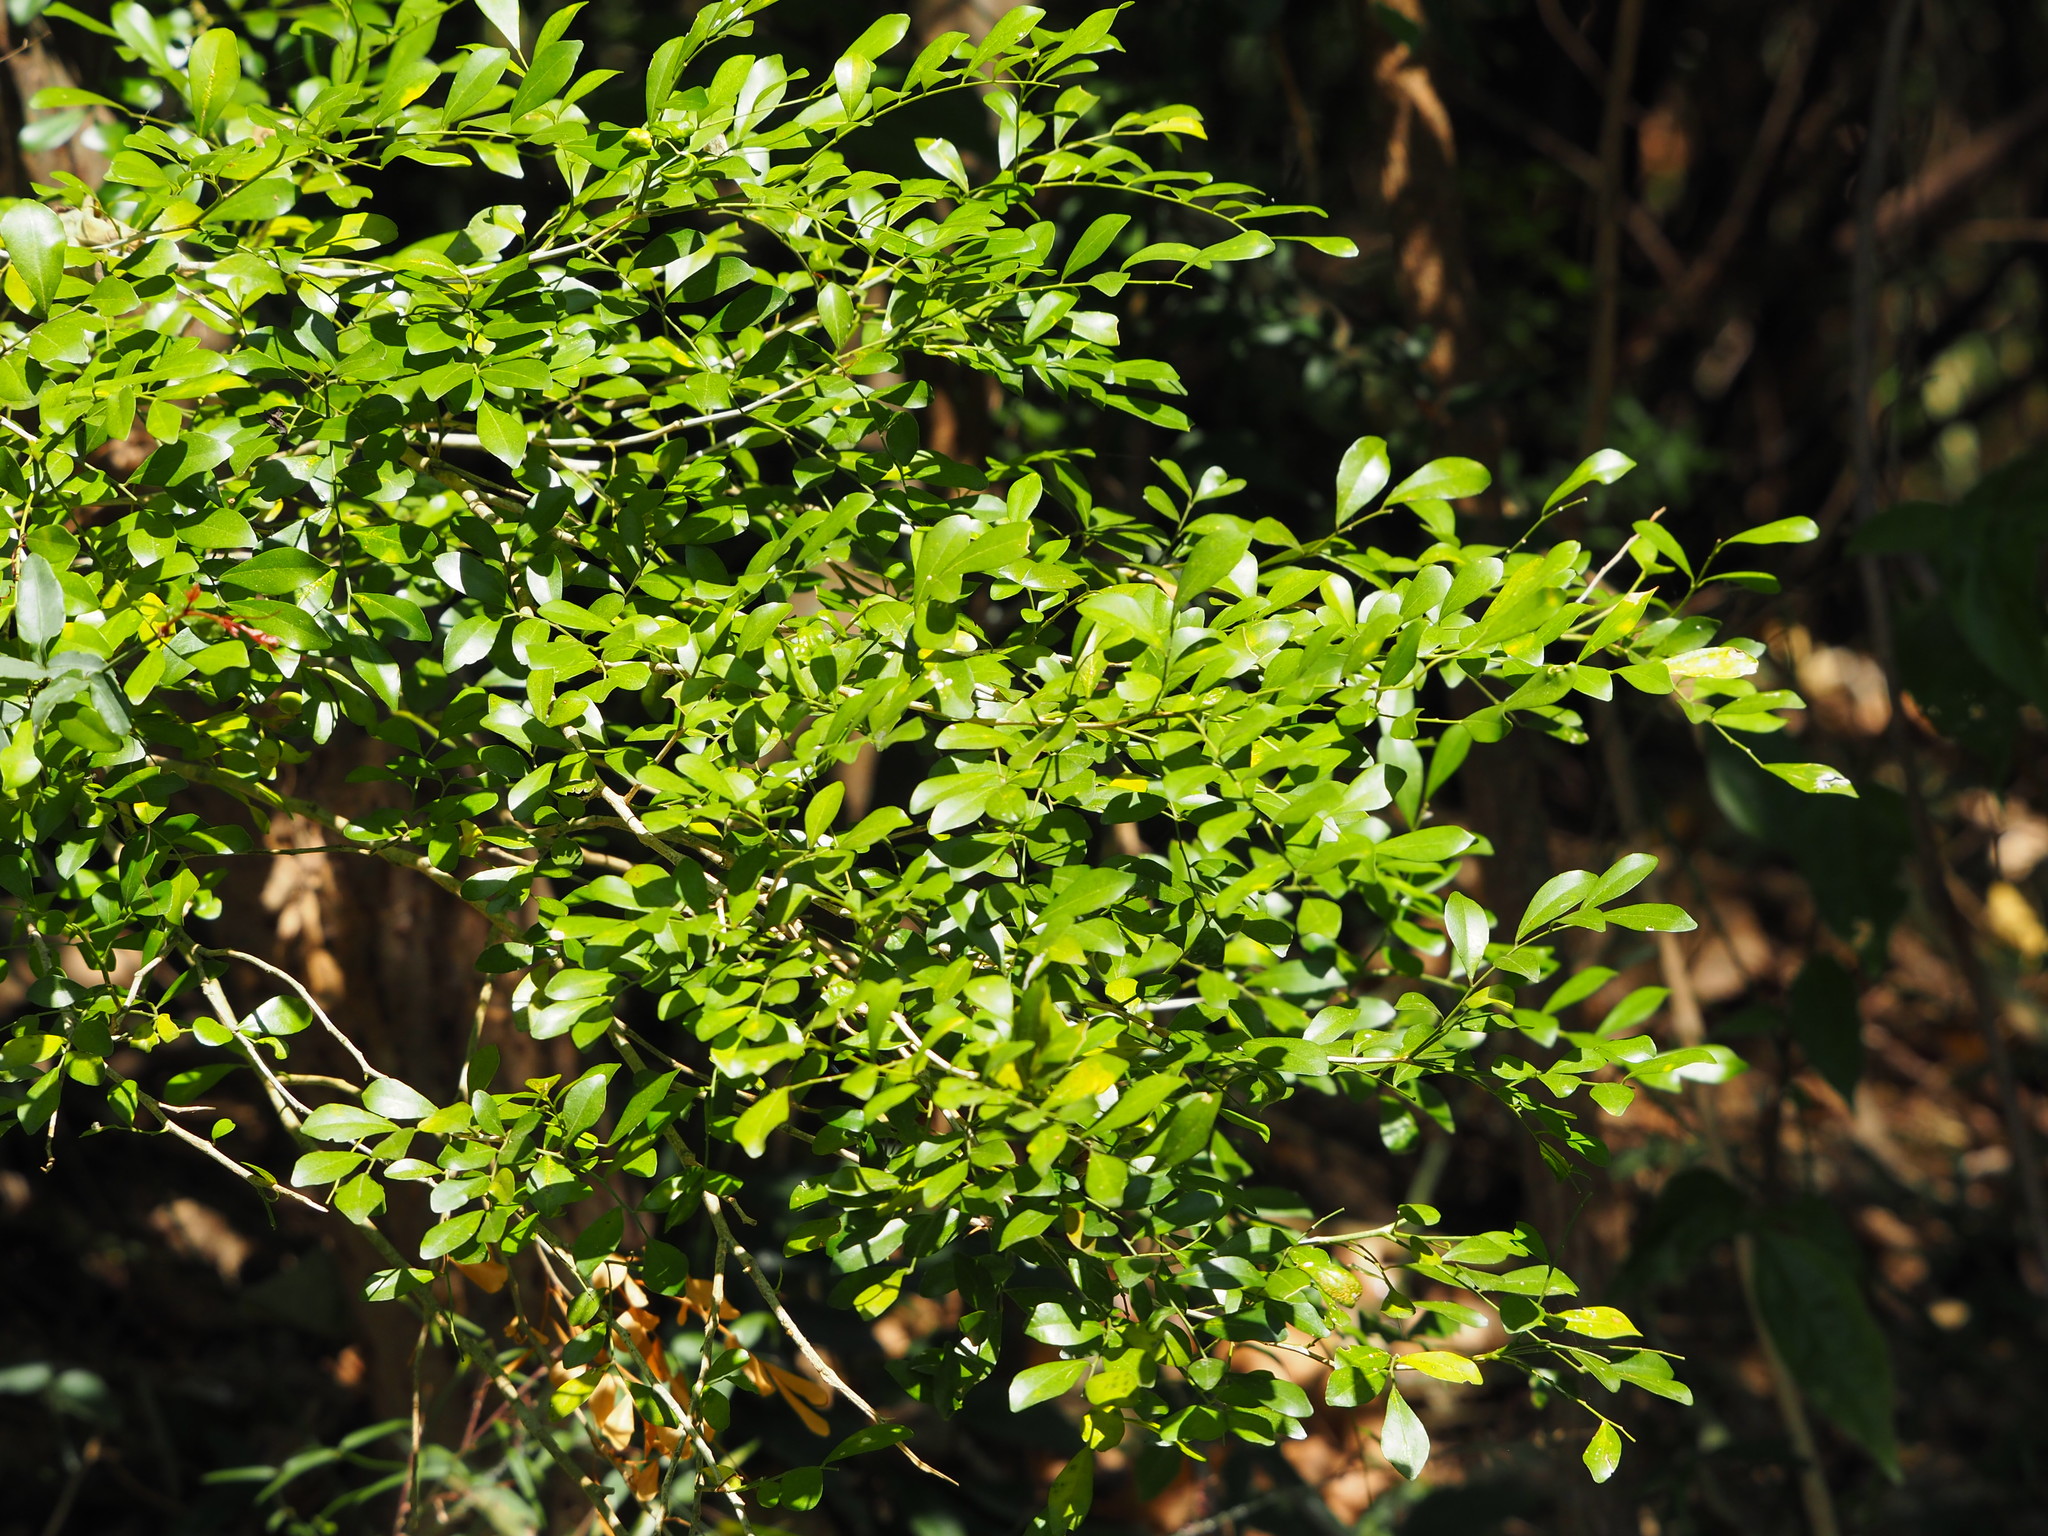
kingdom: Plantae
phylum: Tracheophyta
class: Magnoliopsida
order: Sapindales
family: Rutaceae
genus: Murraya
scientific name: Murraya paniculata
